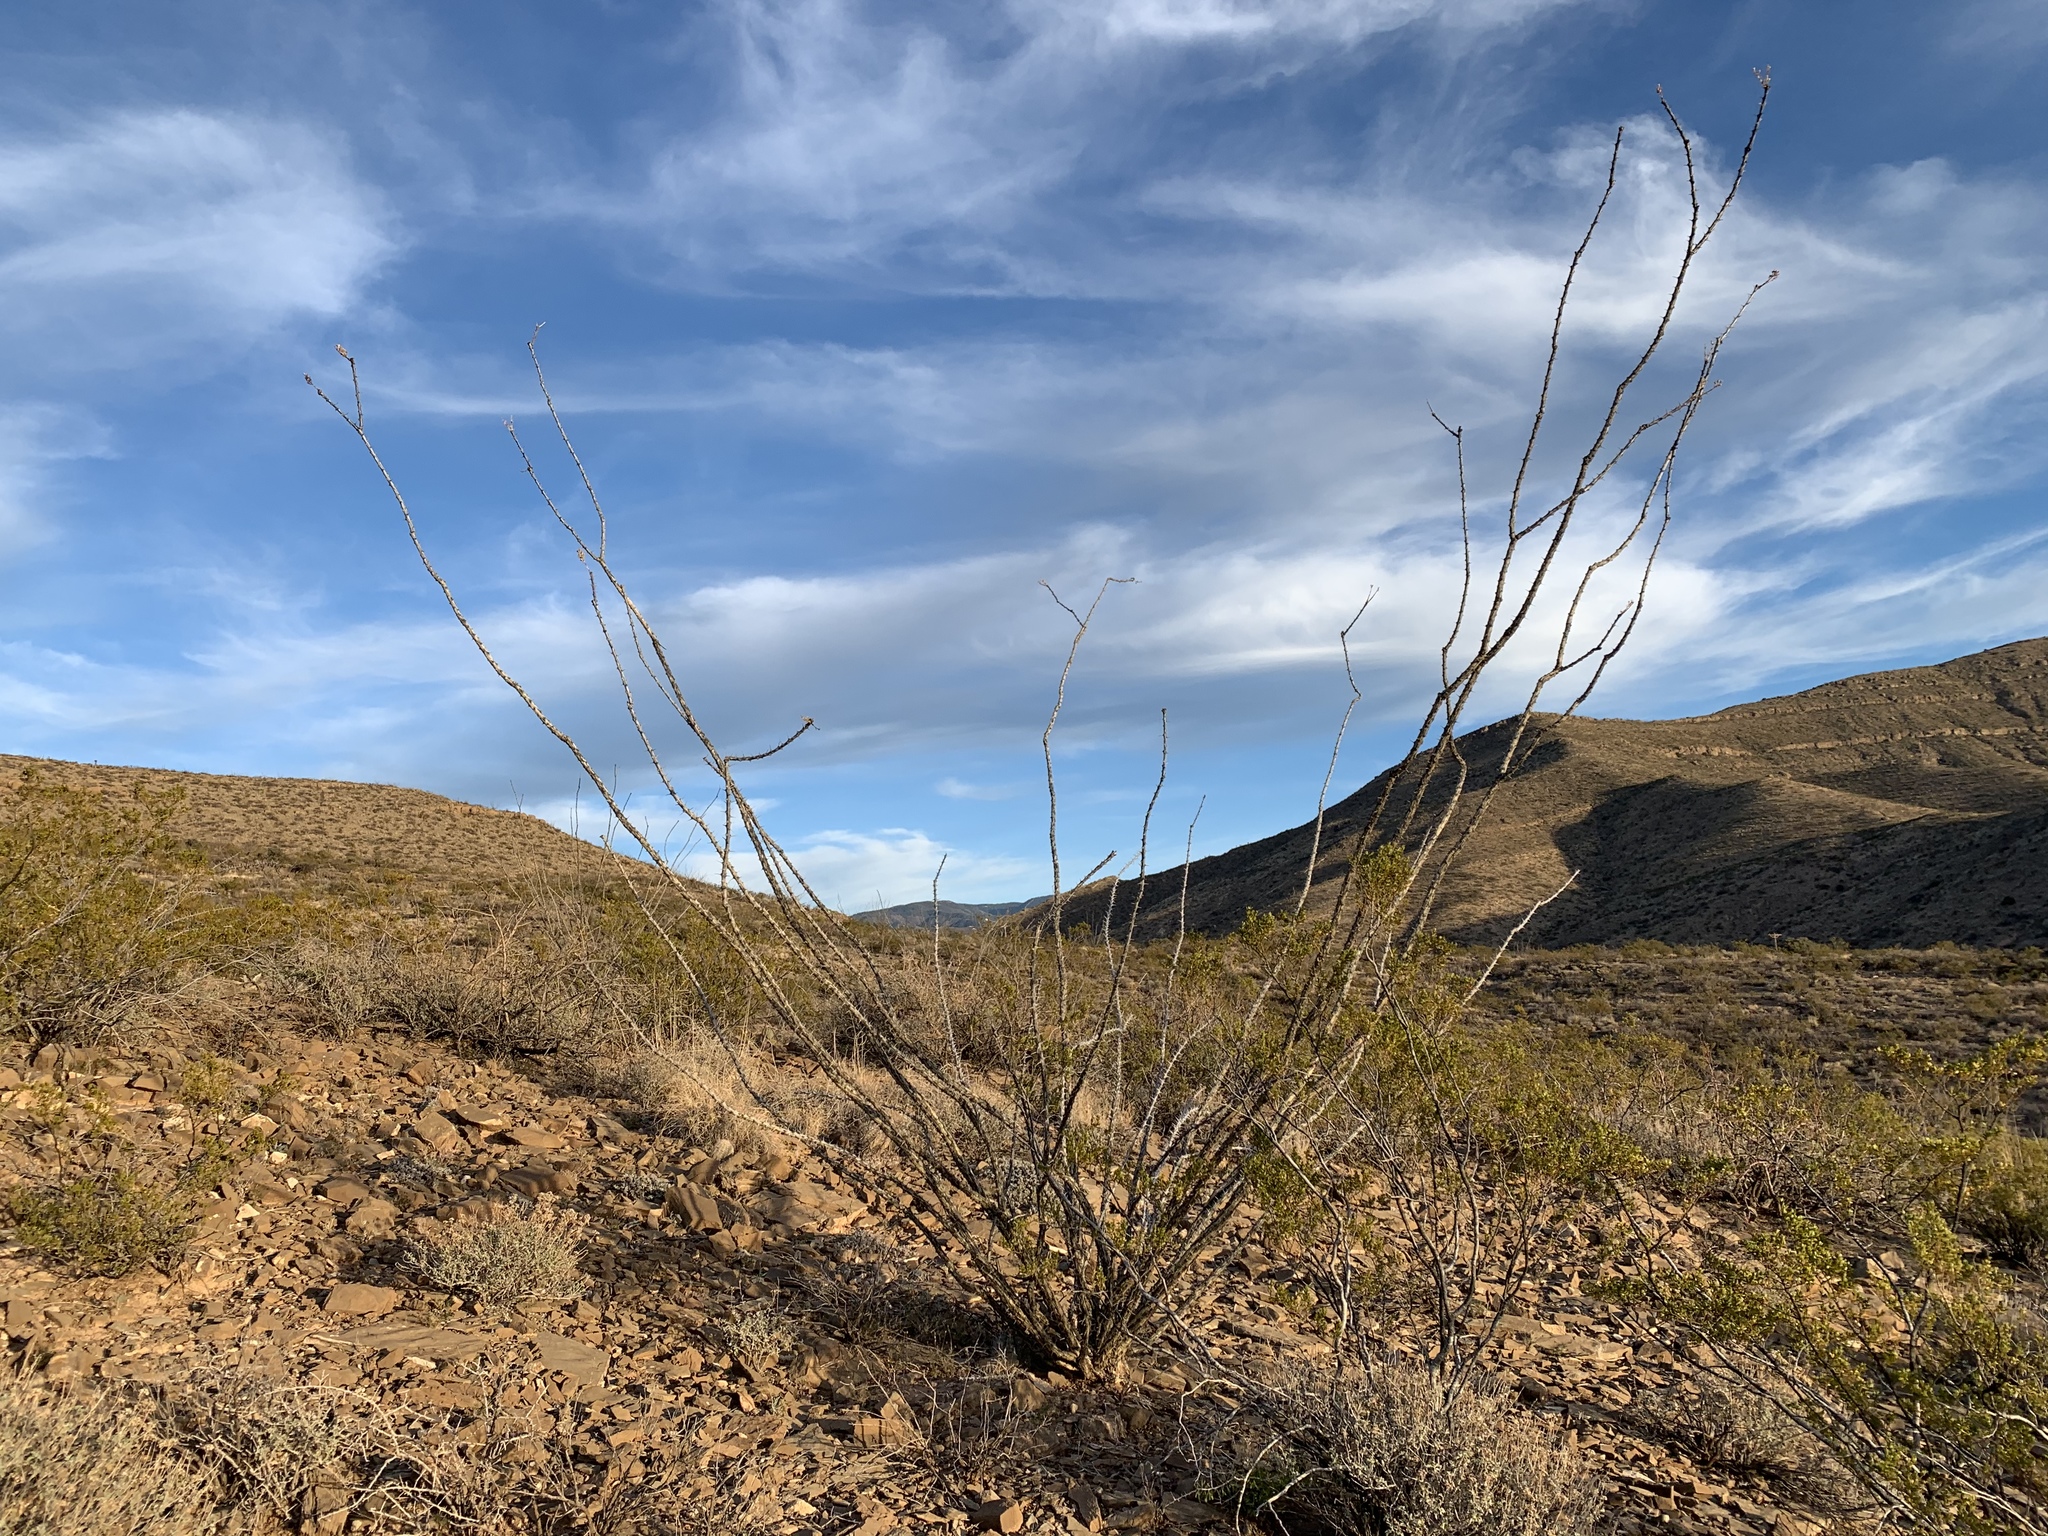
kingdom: Plantae
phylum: Tracheophyta
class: Magnoliopsida
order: Ericales
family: Fouquieriaceae
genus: Fouquieria
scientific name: Fouquieria splendens
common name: Vine-cactus
